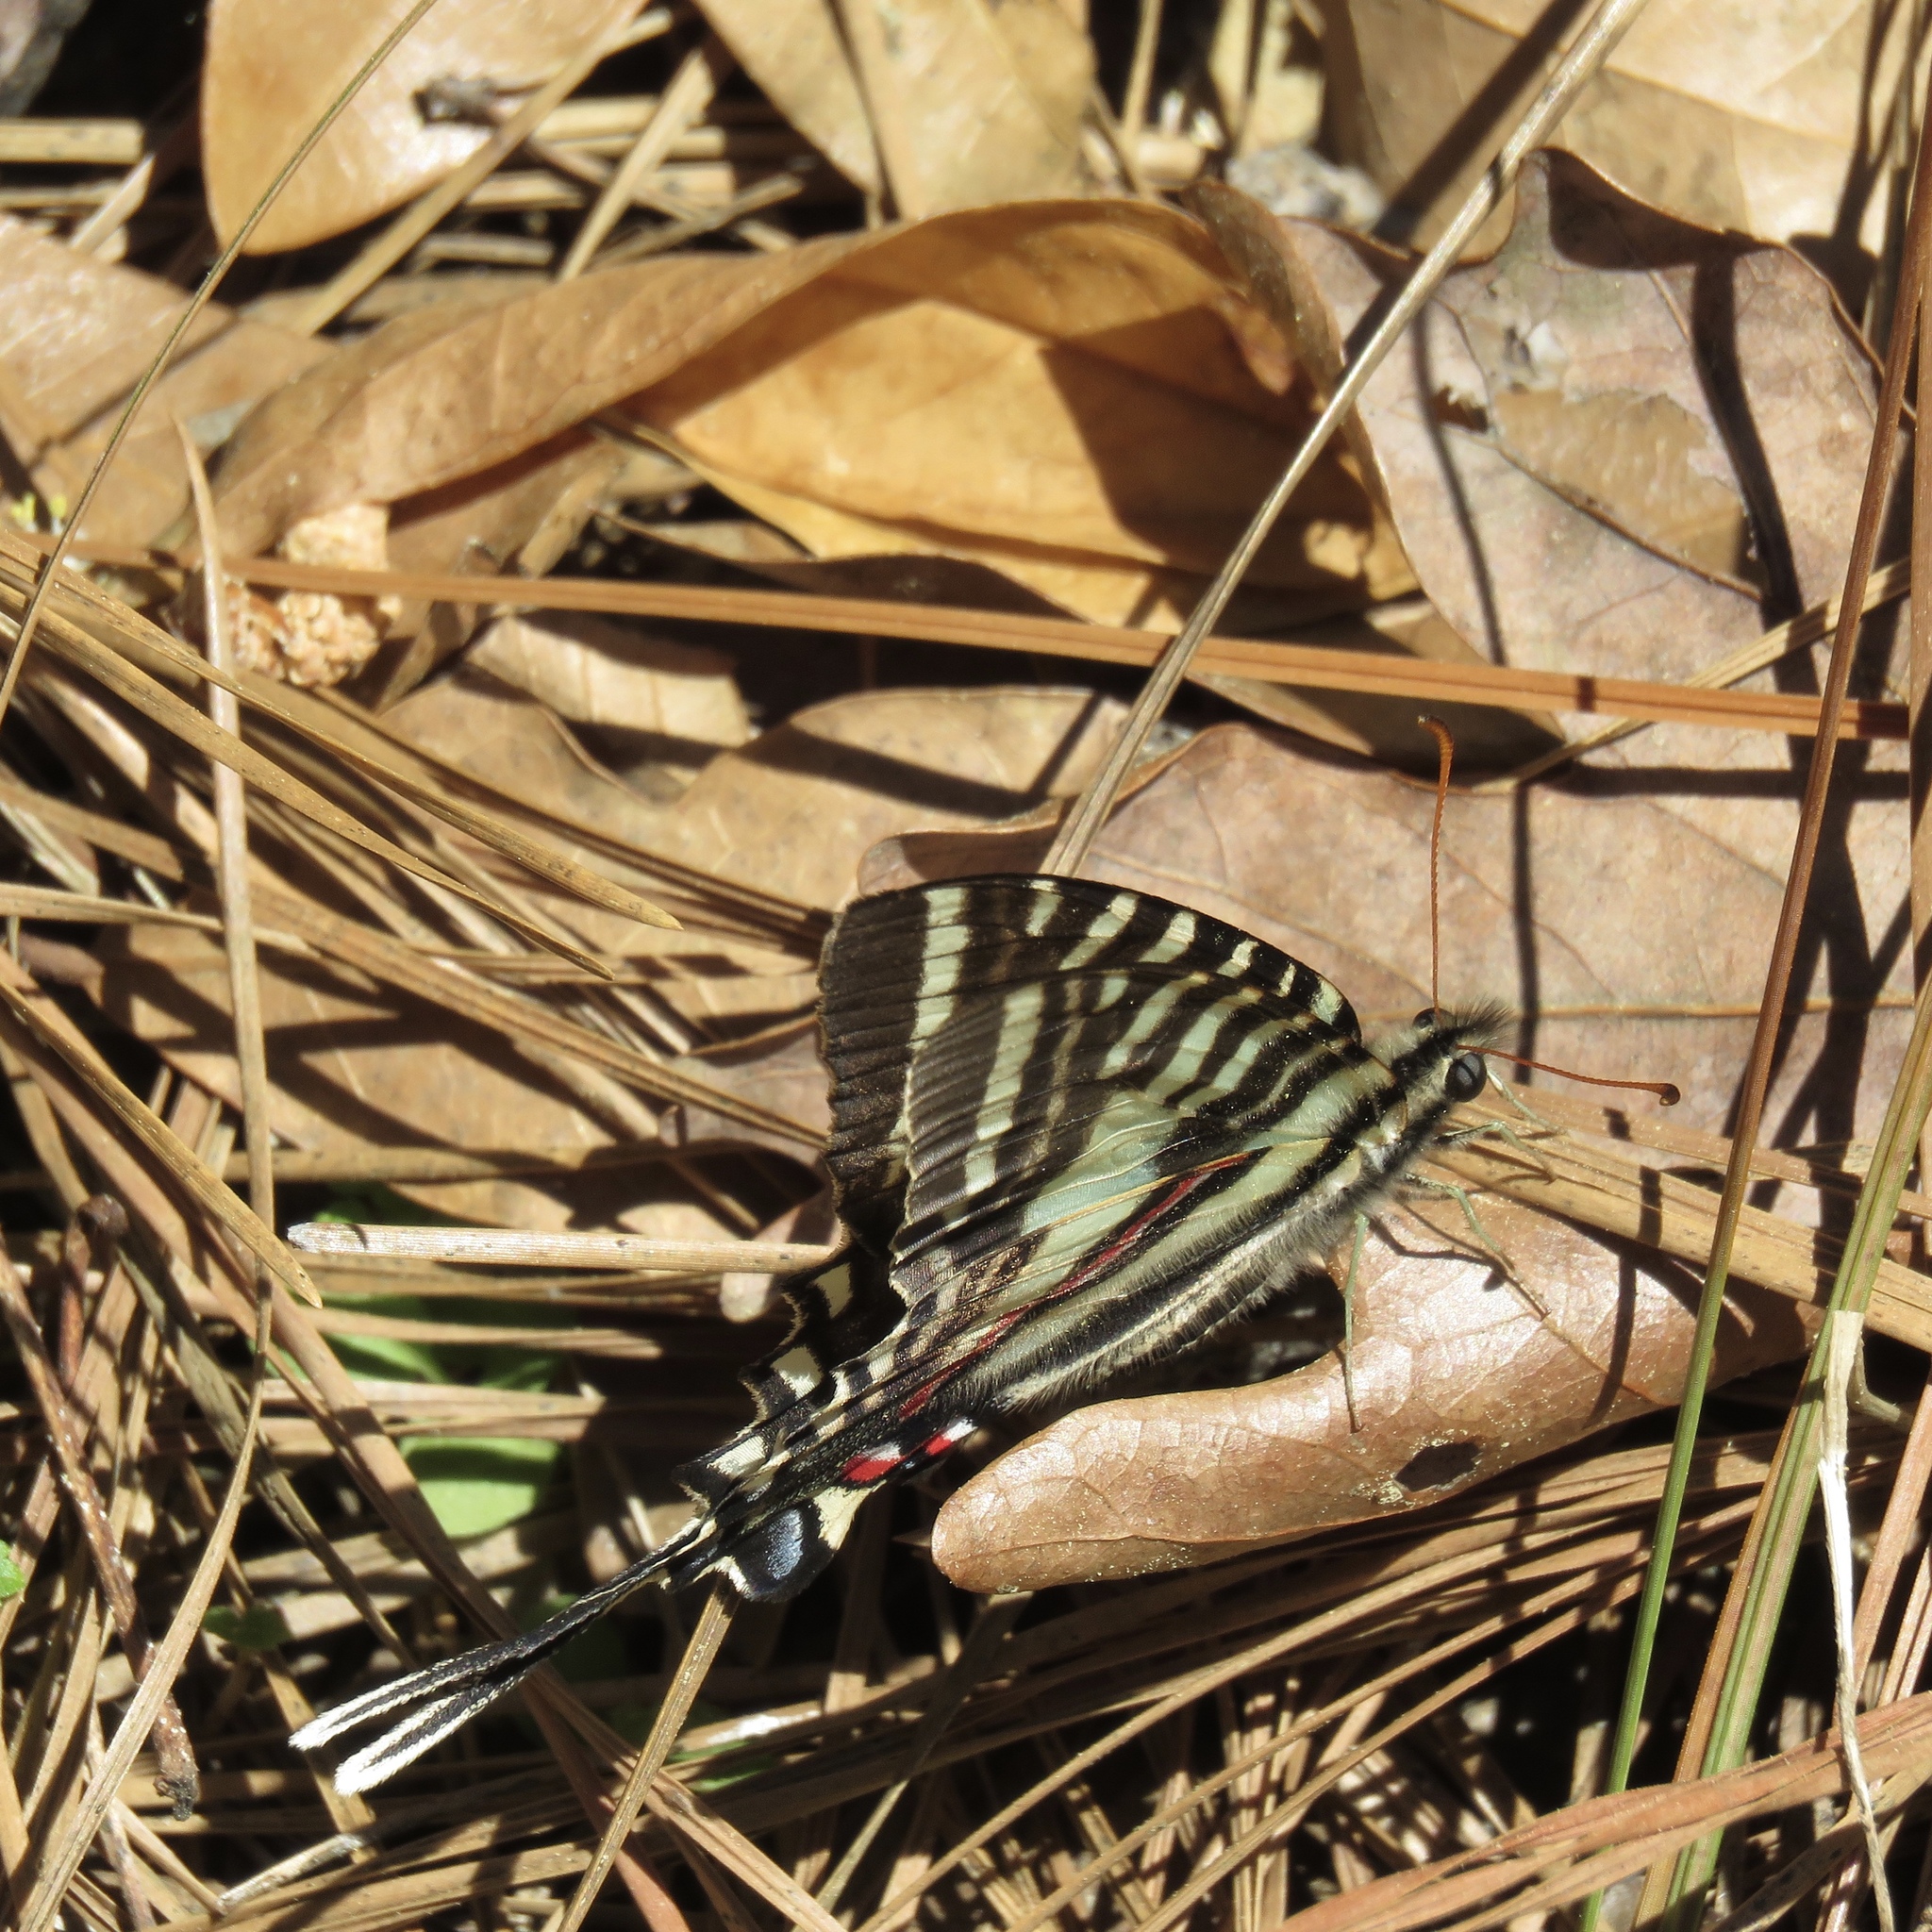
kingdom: Animalia
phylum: Arthropoda
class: Insecta
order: Lepidoptera
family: Papilionidae
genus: Protographium
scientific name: Protographium marcellus
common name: Zebra swallowtail
